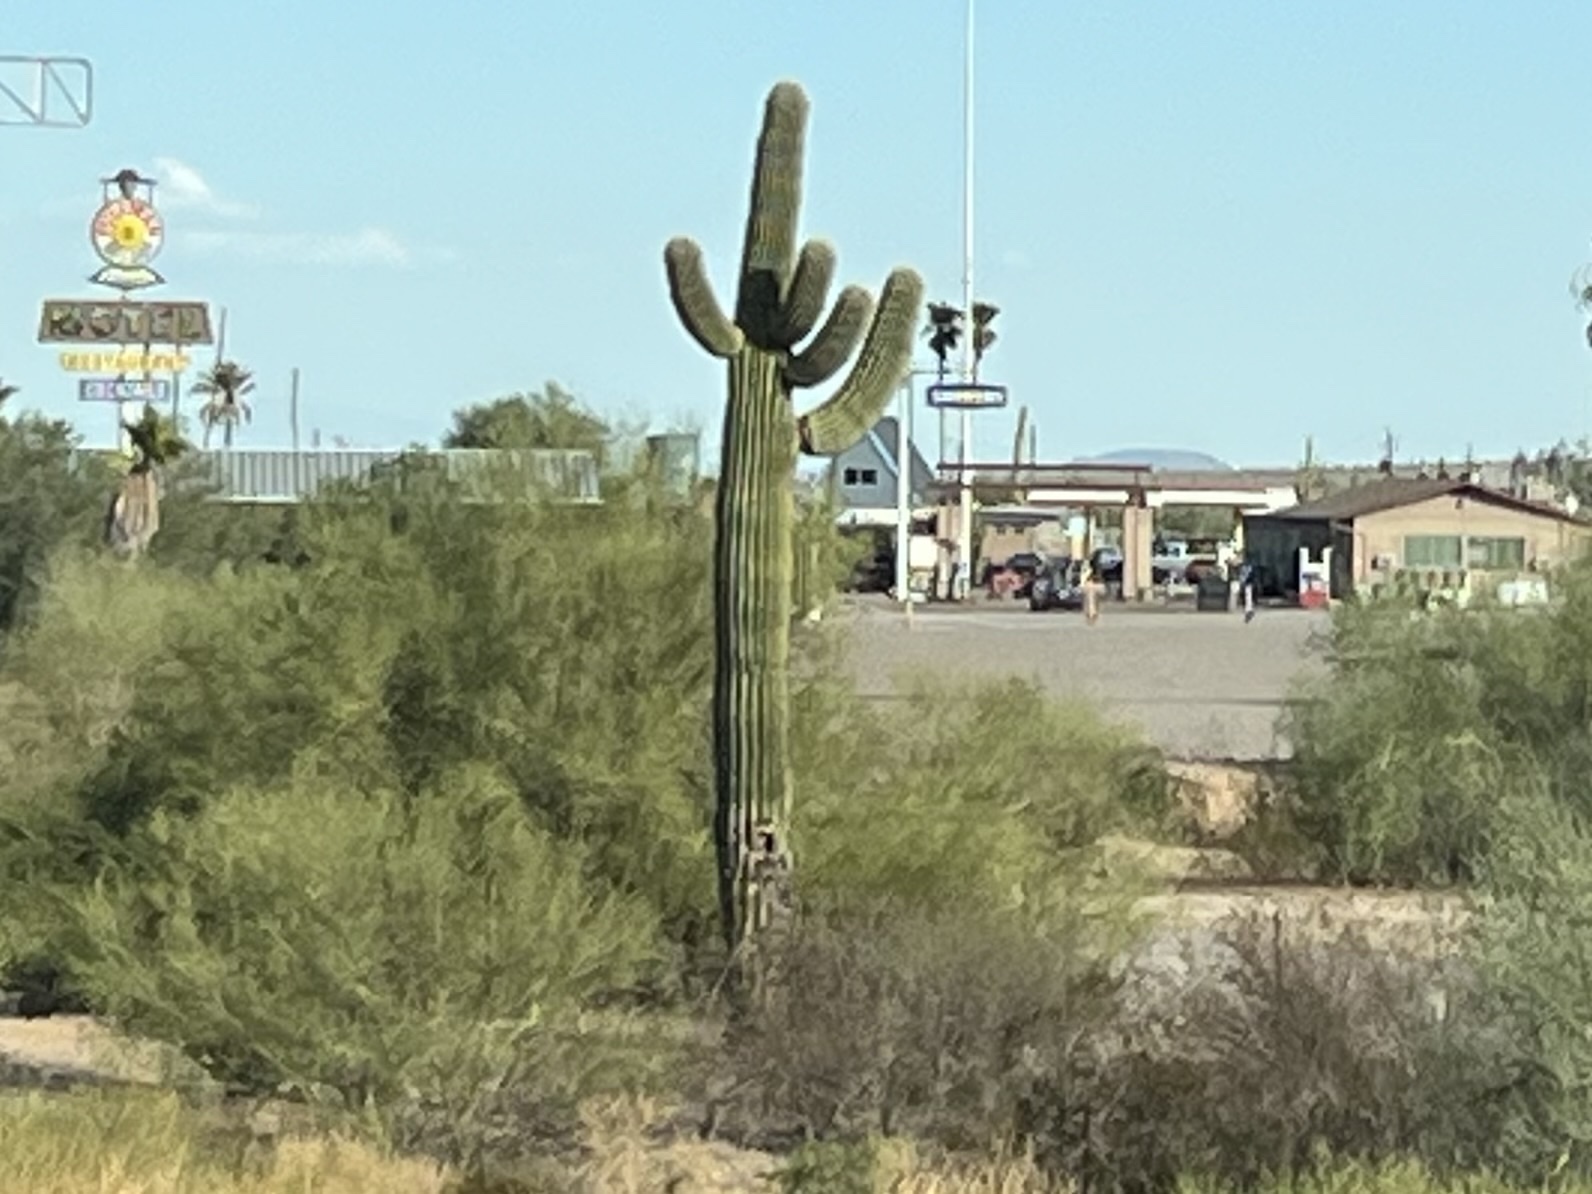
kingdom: Plantae
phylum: Tracheophyta
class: Magnoliopsida
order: Caryophyllales
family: Cactaceae
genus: Carnegiea
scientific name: Carnegiea gigantea
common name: Saguaro
